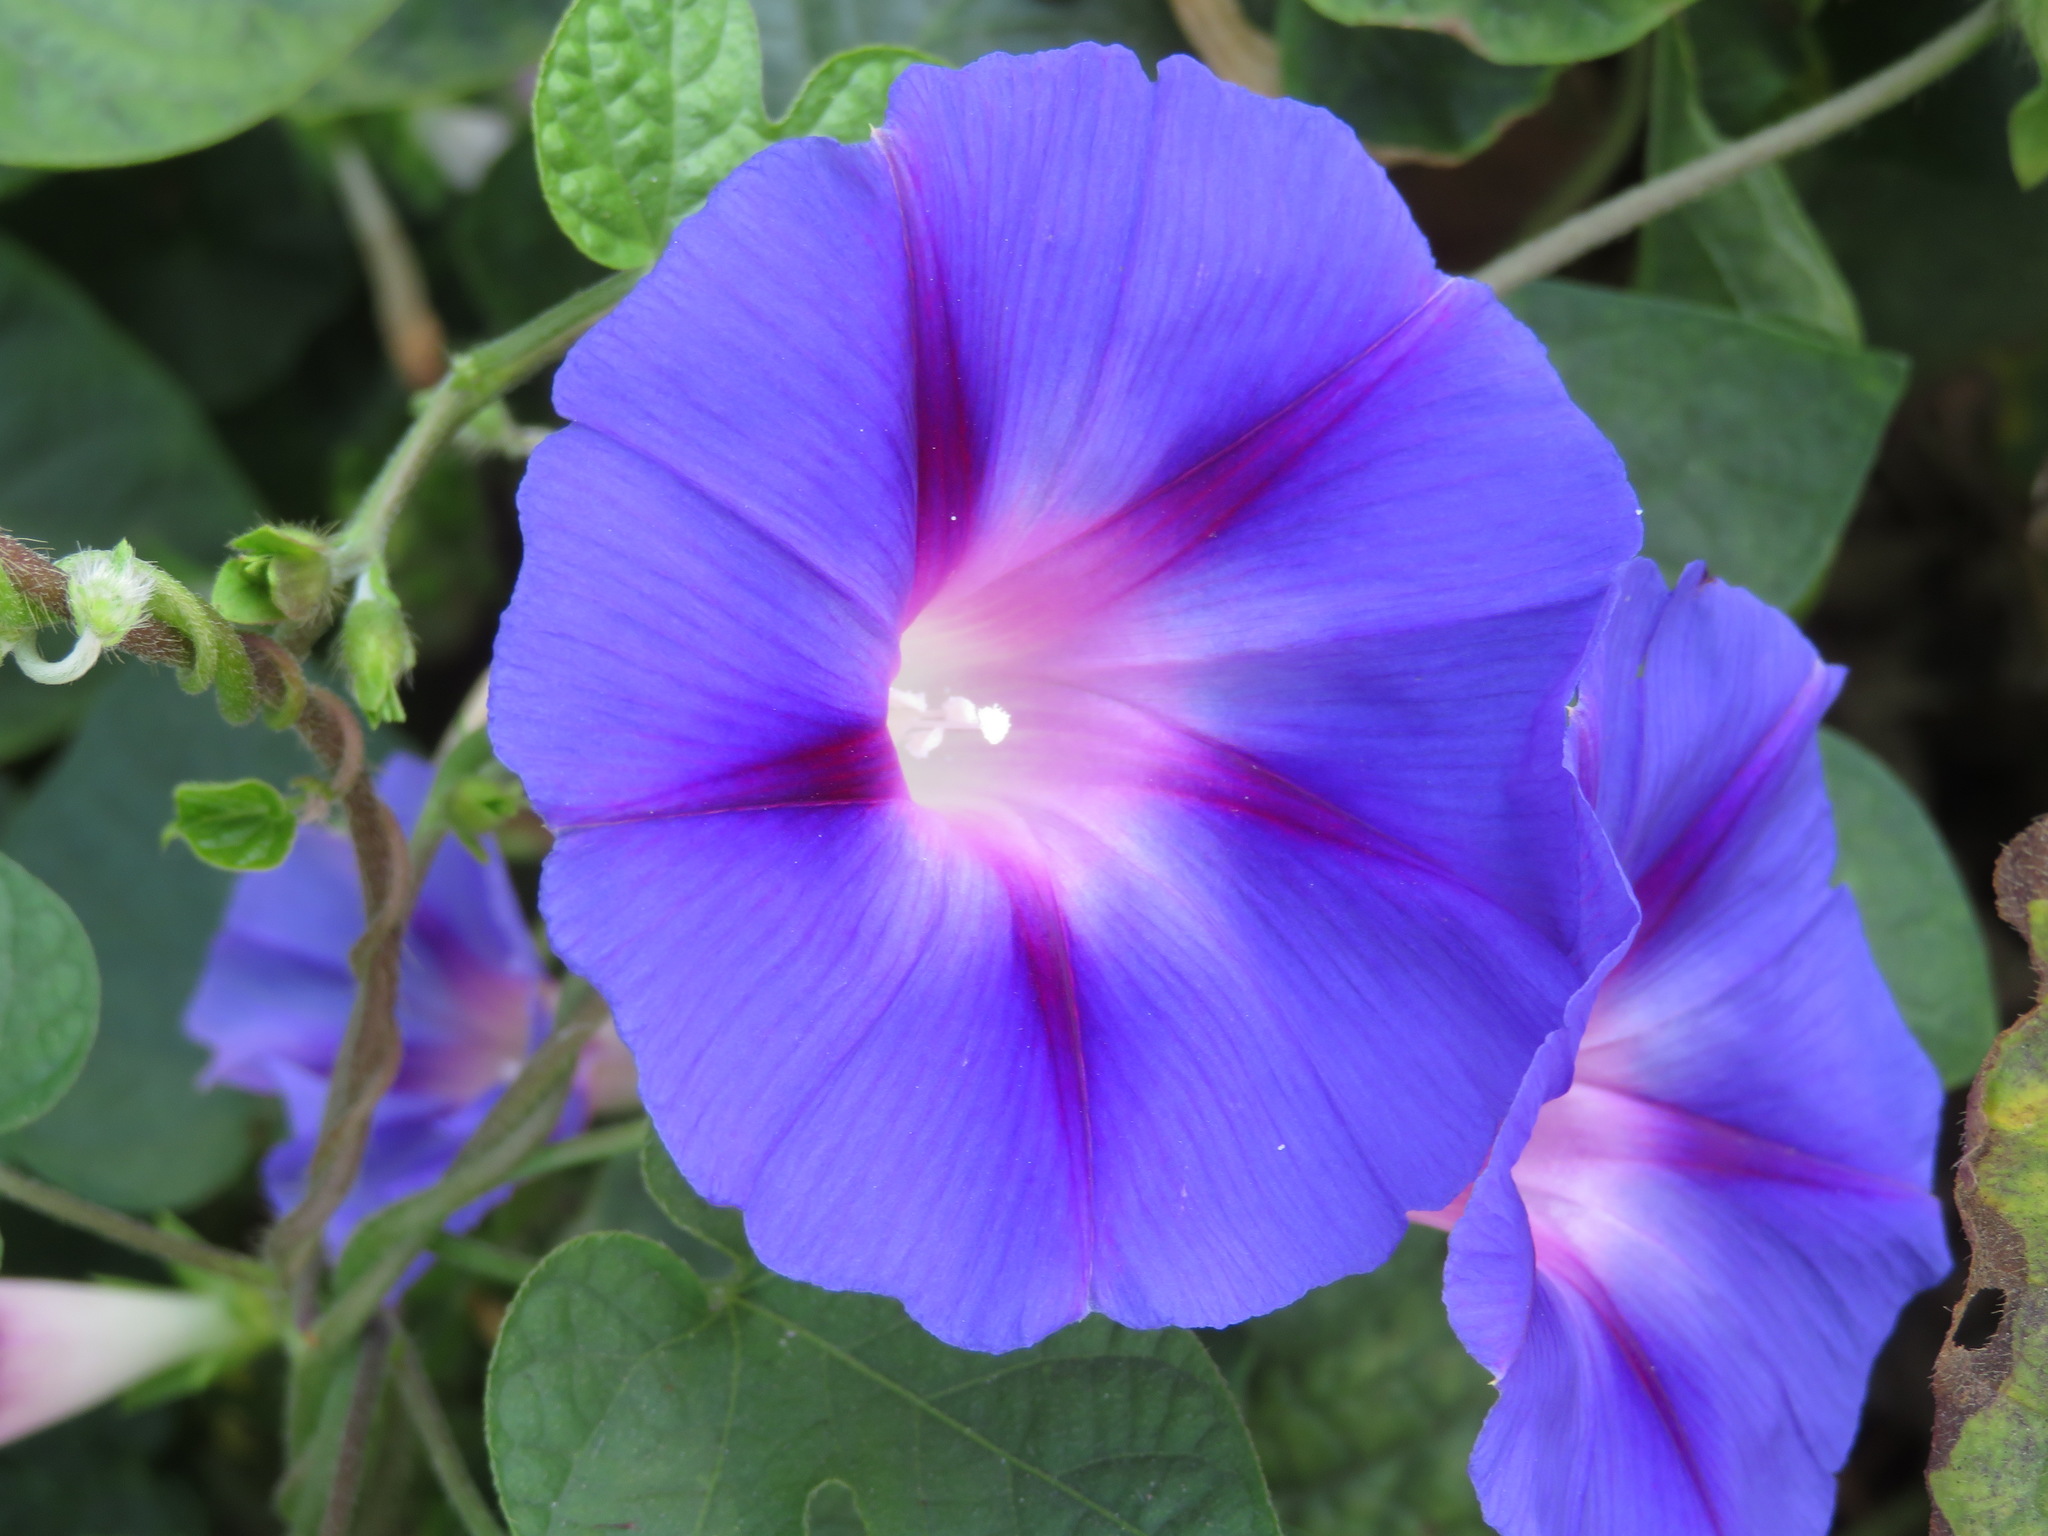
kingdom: Plantae
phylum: Tracheophyta
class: Magnoliopsida
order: Solanales
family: Convolvulaceae
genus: Ipomoea
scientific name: Ipomoea purpurea
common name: Common morning-glory
